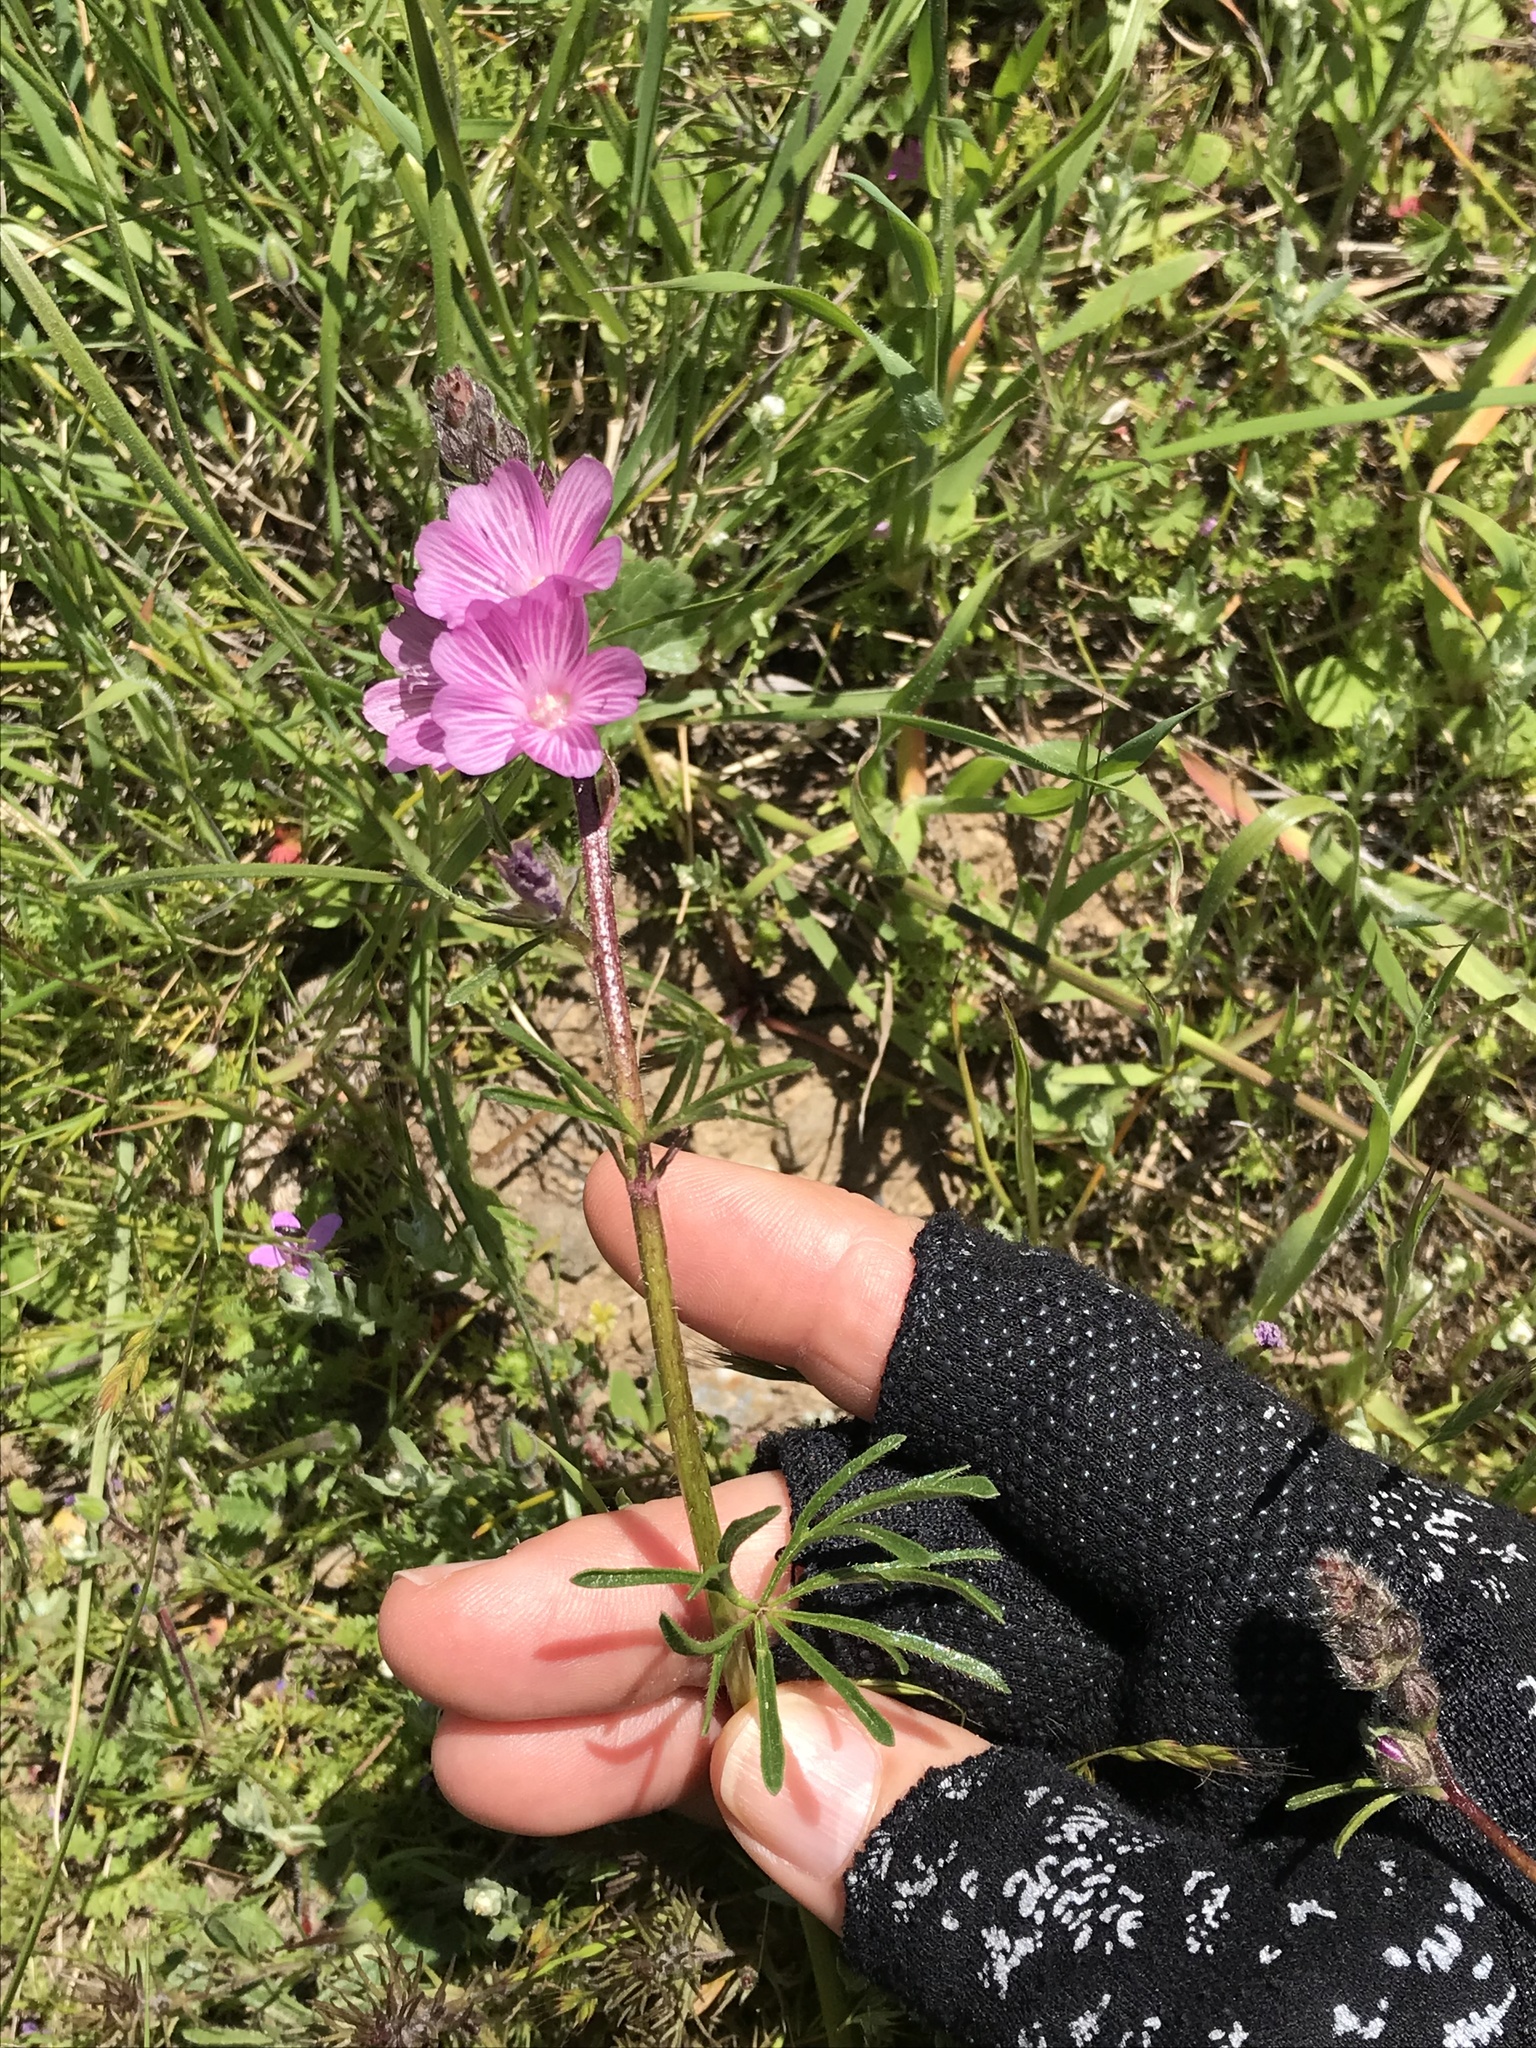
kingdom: Plantae
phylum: Tracheophyta
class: Magnoliopsida
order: Malvales
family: Malvaceae
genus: Sidalcea
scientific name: Sidalcea malviflora
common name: Greek mallow
